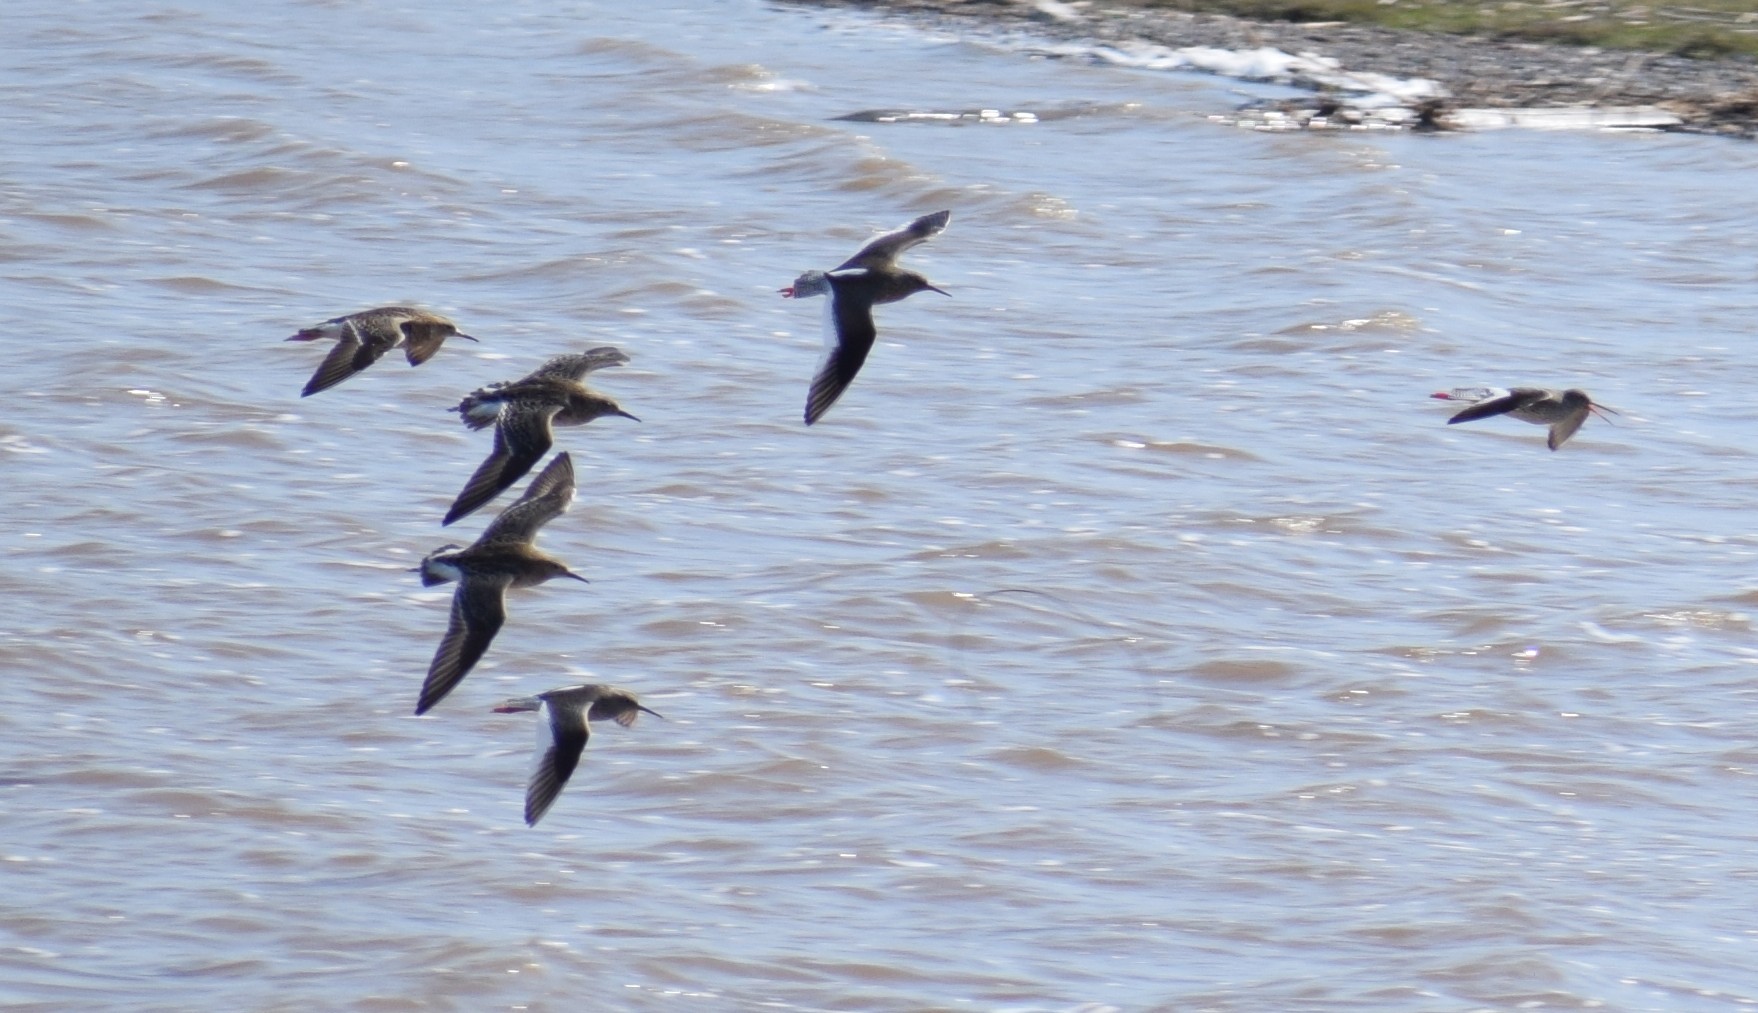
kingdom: Animalia
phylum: Chordata
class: Aves
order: Charadriiformes
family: Scolopacidae
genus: Tringa
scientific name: Tringa totanus
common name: Common redshank
